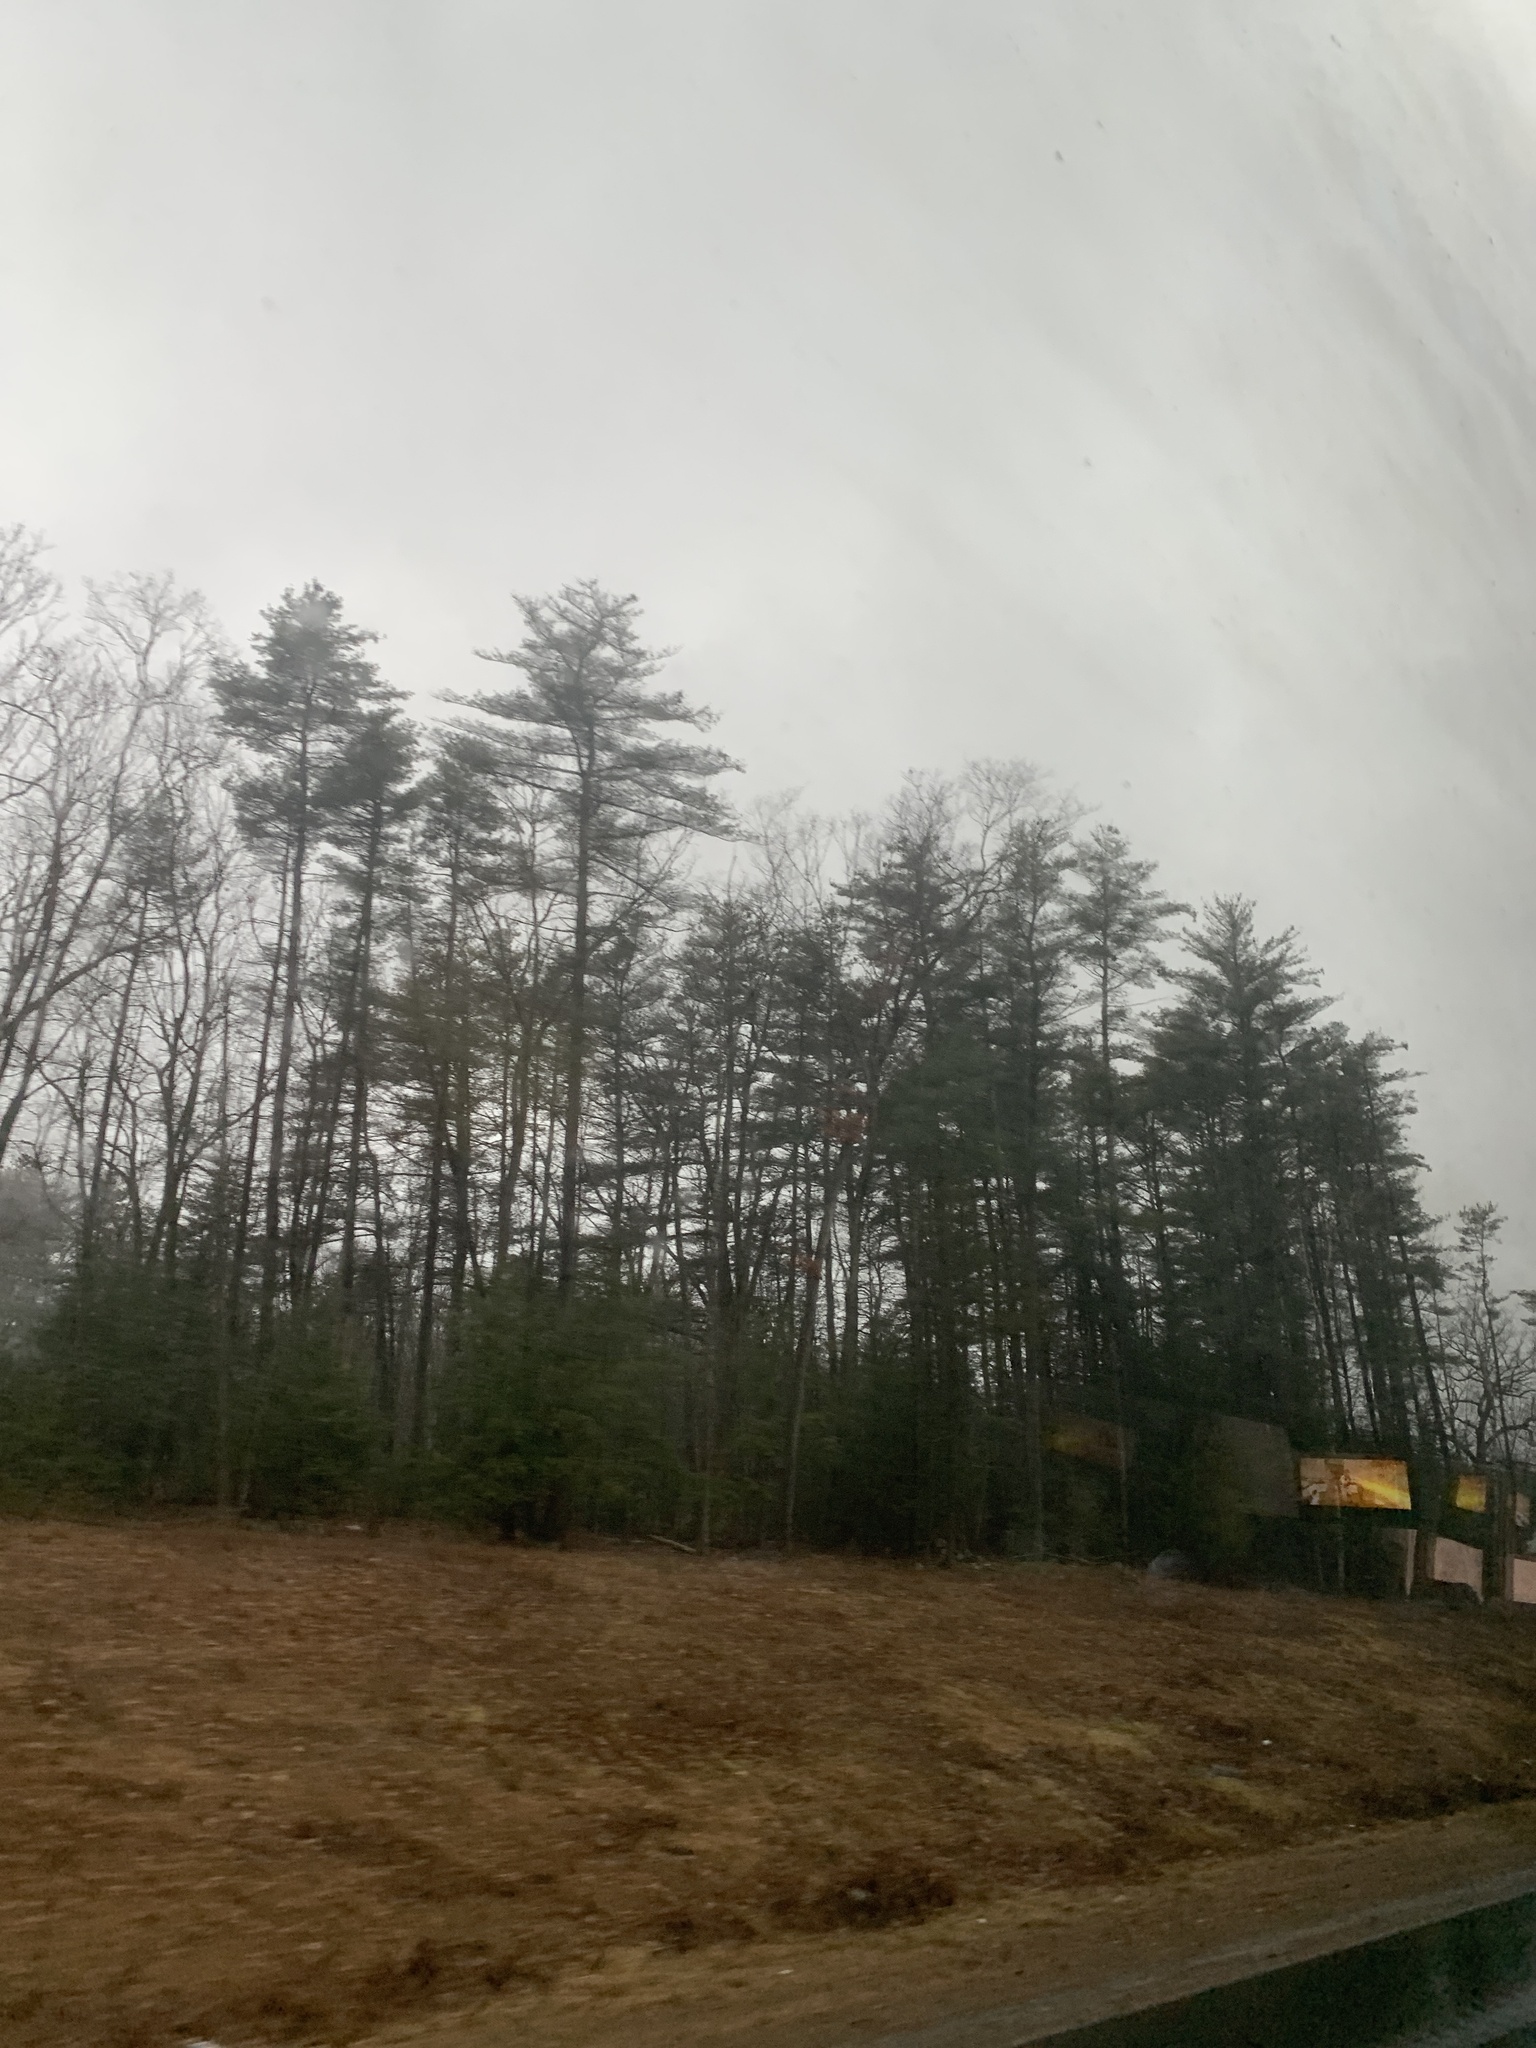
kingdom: Plantae
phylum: Tracheophyta
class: Pinopsida
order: Pinales
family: Pinaceae
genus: Pinus
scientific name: Pinus strobus
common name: Weymouth pine
